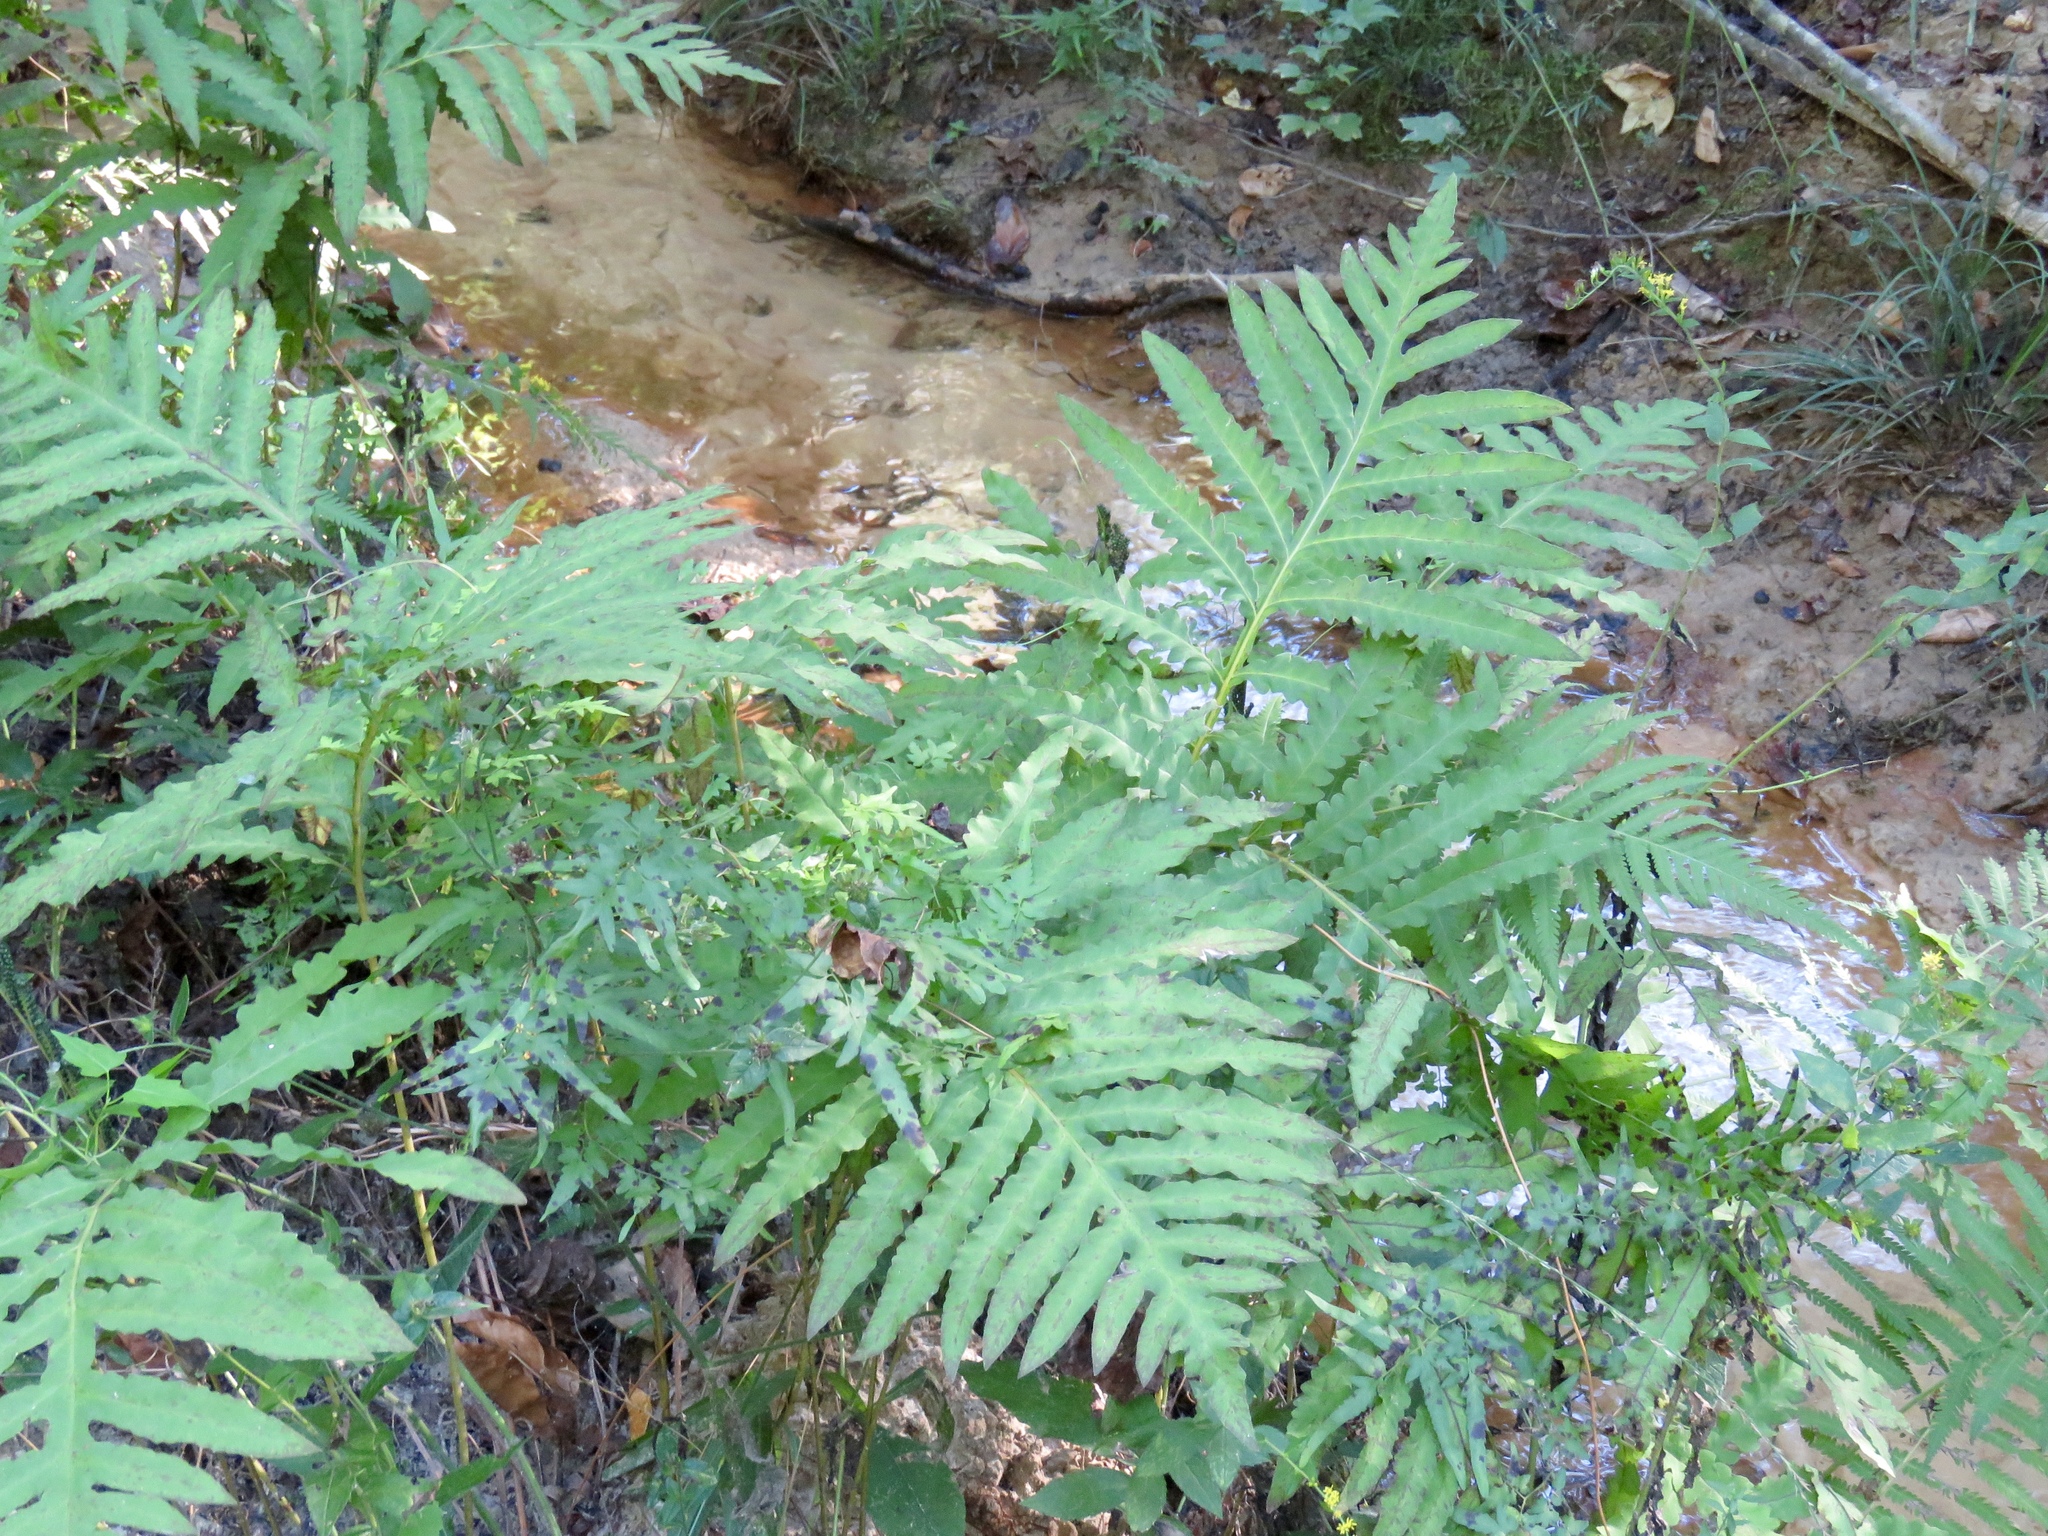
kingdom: Plantae
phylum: Tracheophyta
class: Polypodiopsida
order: Polypodiales
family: Onocleaceae
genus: Onoclea
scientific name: Onoclea sensibilis
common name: Sensitive fern
